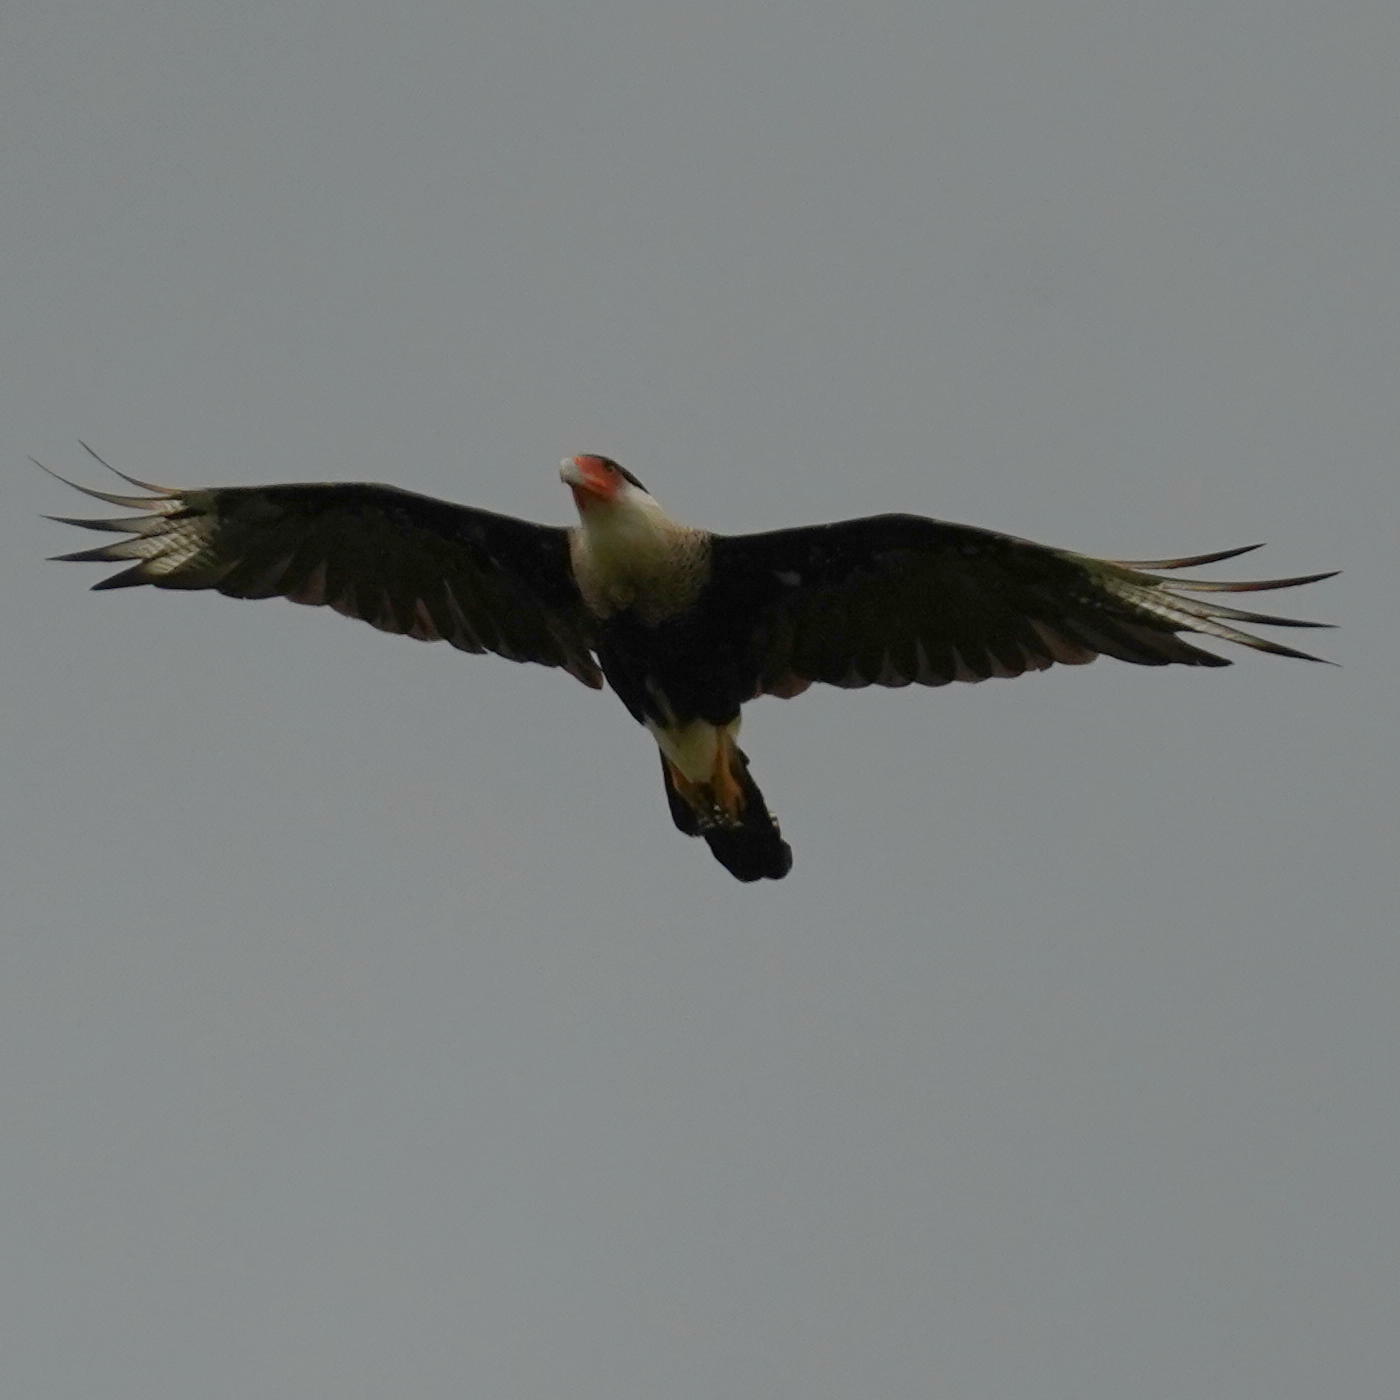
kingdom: Animalia
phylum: Chordata
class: Aves
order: Falconiformes
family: Falconidae
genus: Caracara
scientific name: Caracara plancus
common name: Southern caracara
